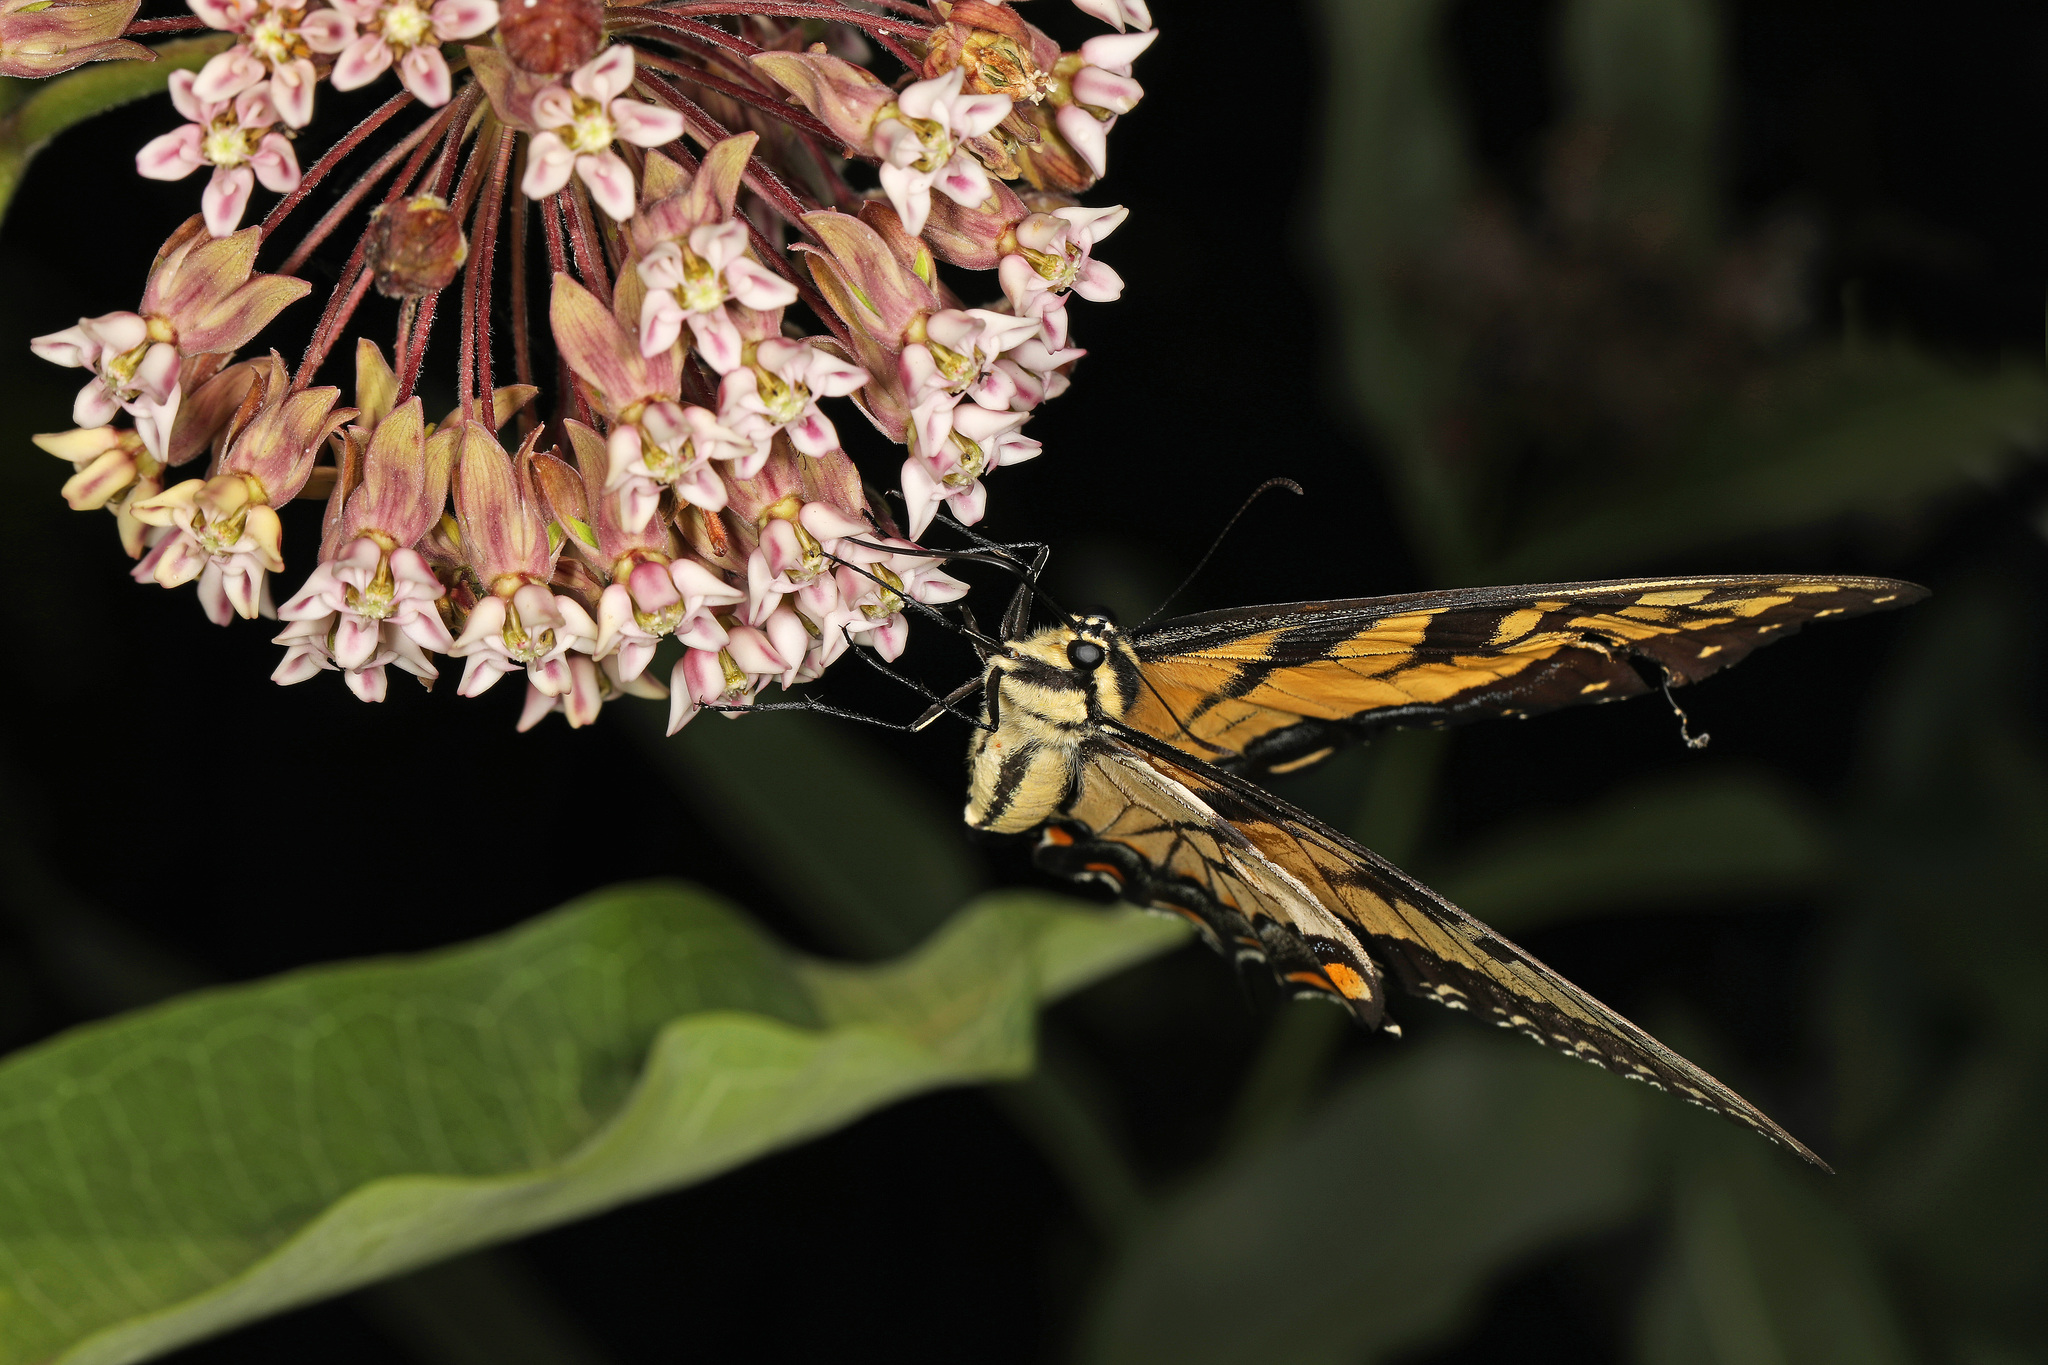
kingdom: Animalia
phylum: Arthropoda
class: Insecta
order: Lepidoptera
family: Papilionidae
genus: Papilio
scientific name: Papilio glaucus
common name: Tiger swallowtail
